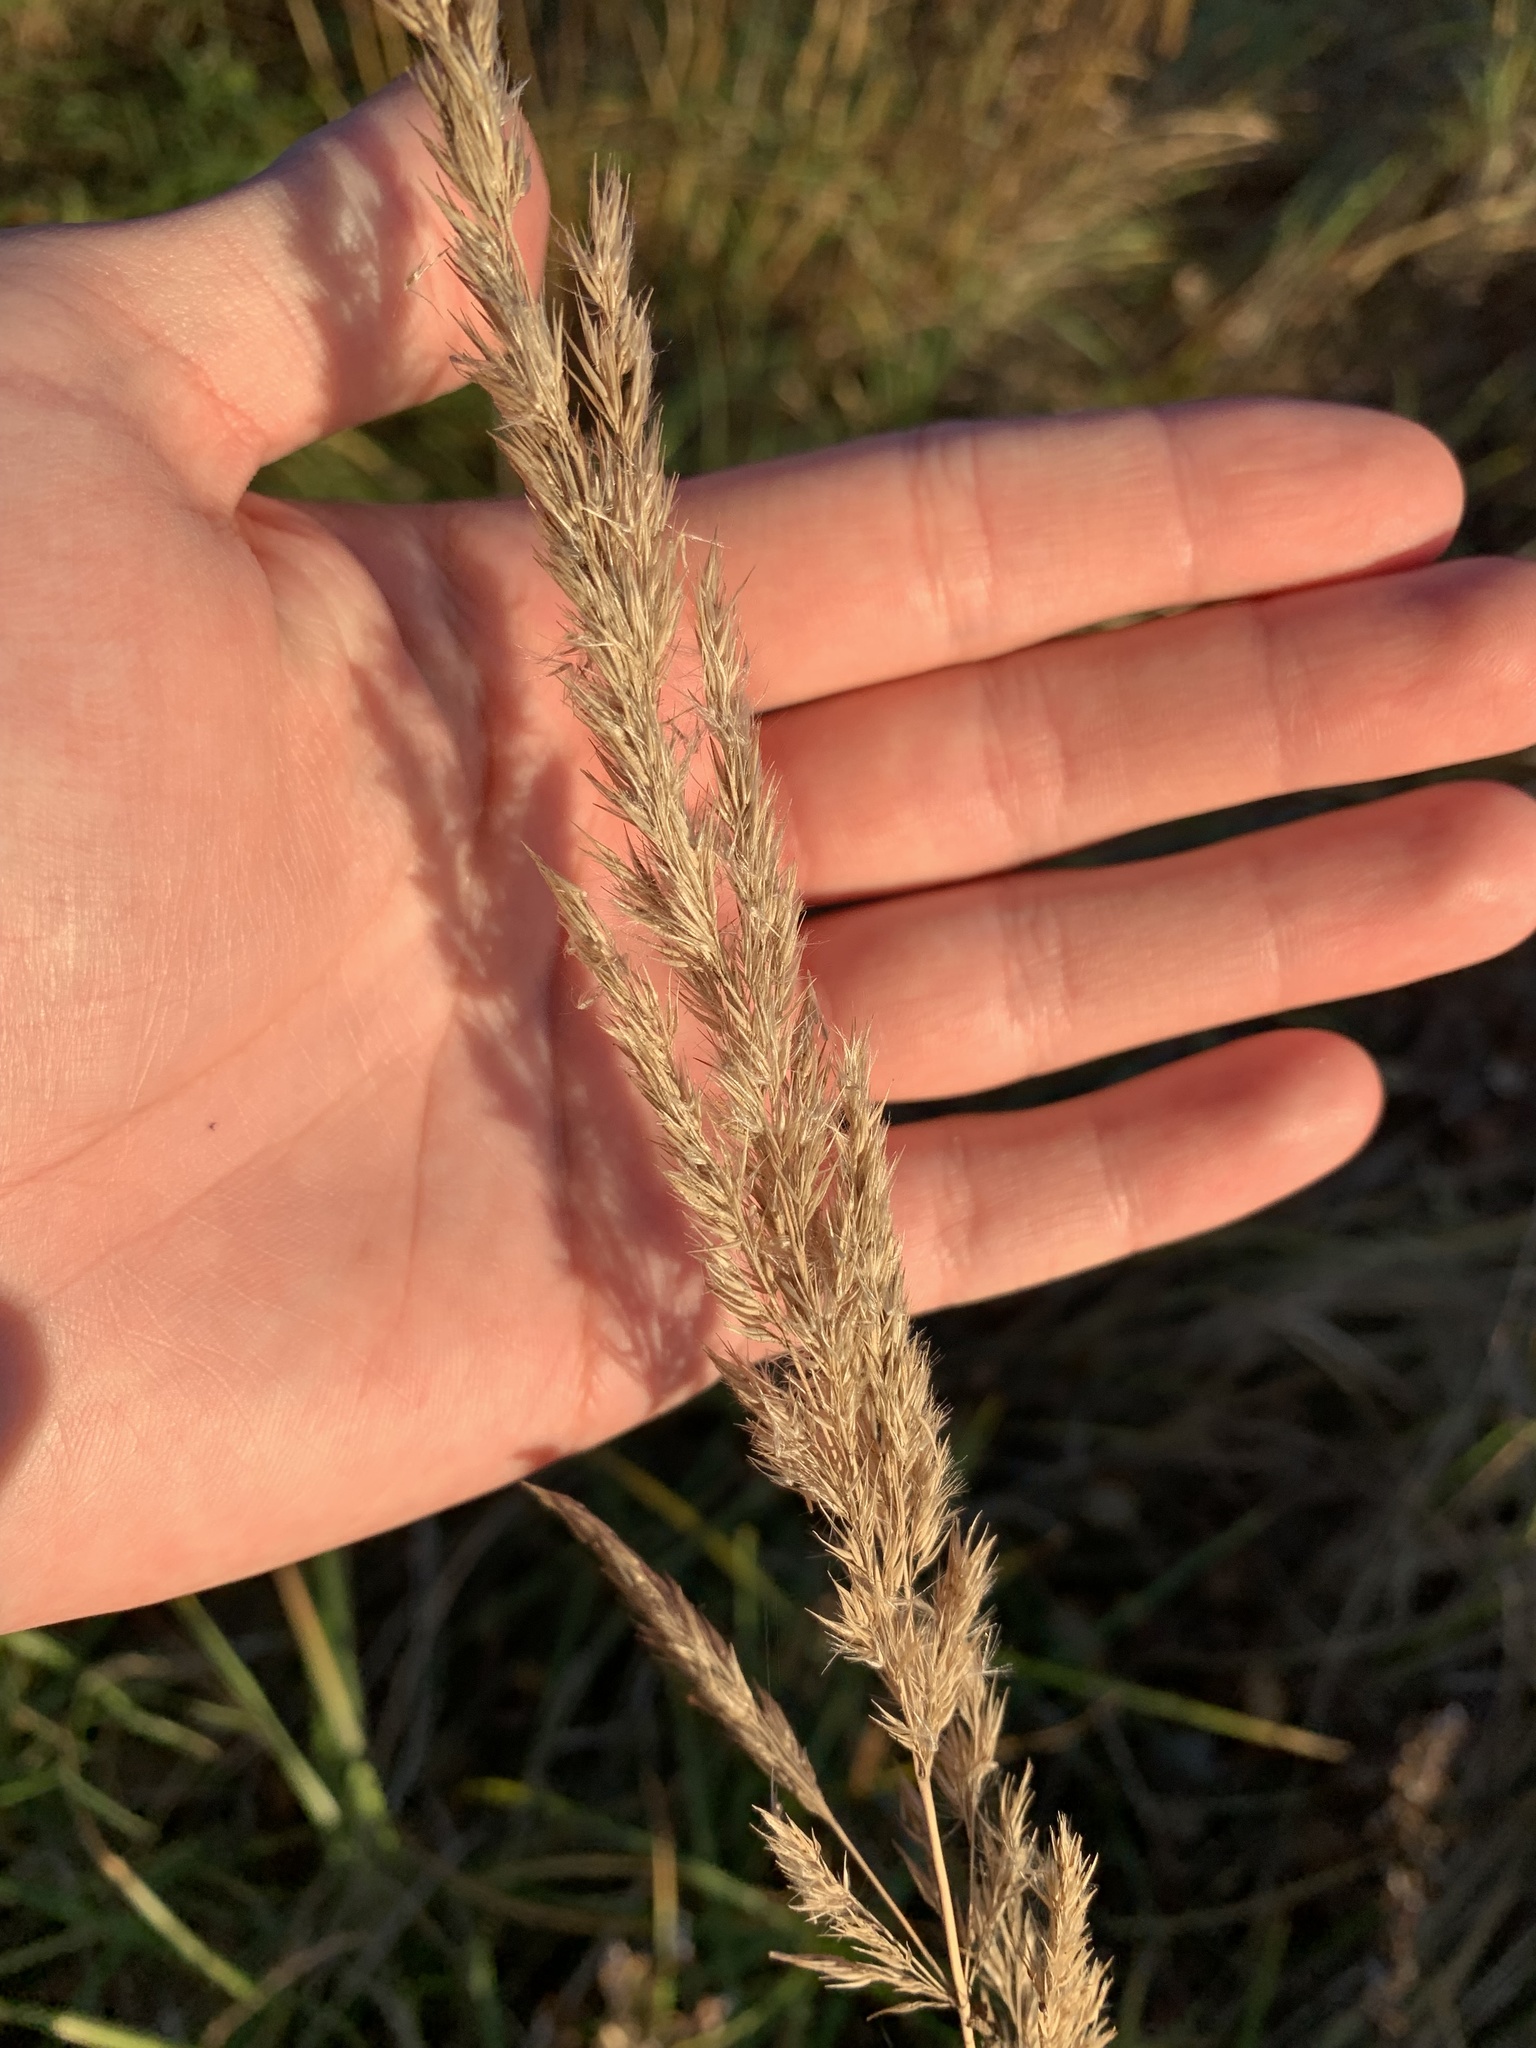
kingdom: Plantae
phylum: Tracheophyta
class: Liliopsida
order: Poales
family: Poaceae
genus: Calamagrostis
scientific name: Calamagrostis epigejos
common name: Wood small-reed
